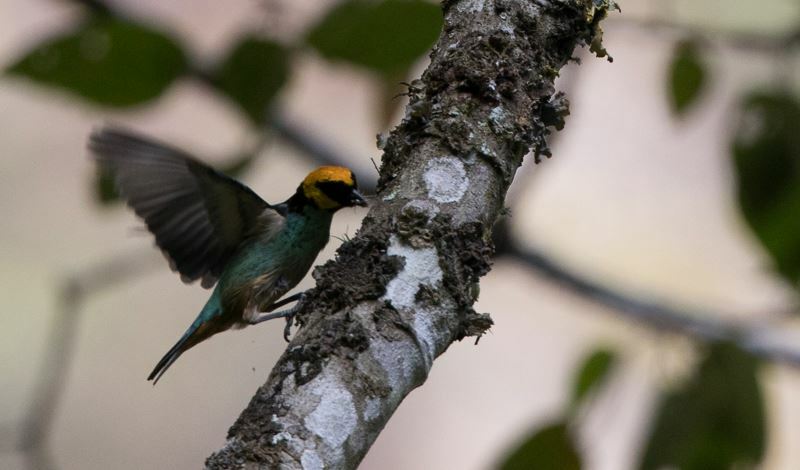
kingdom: Animalia
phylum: Chordata
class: Aves
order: Passeriformes
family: Thraupidae
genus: Tangara
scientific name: Tangara xanthocephala
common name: Saffron-crowned tanager
